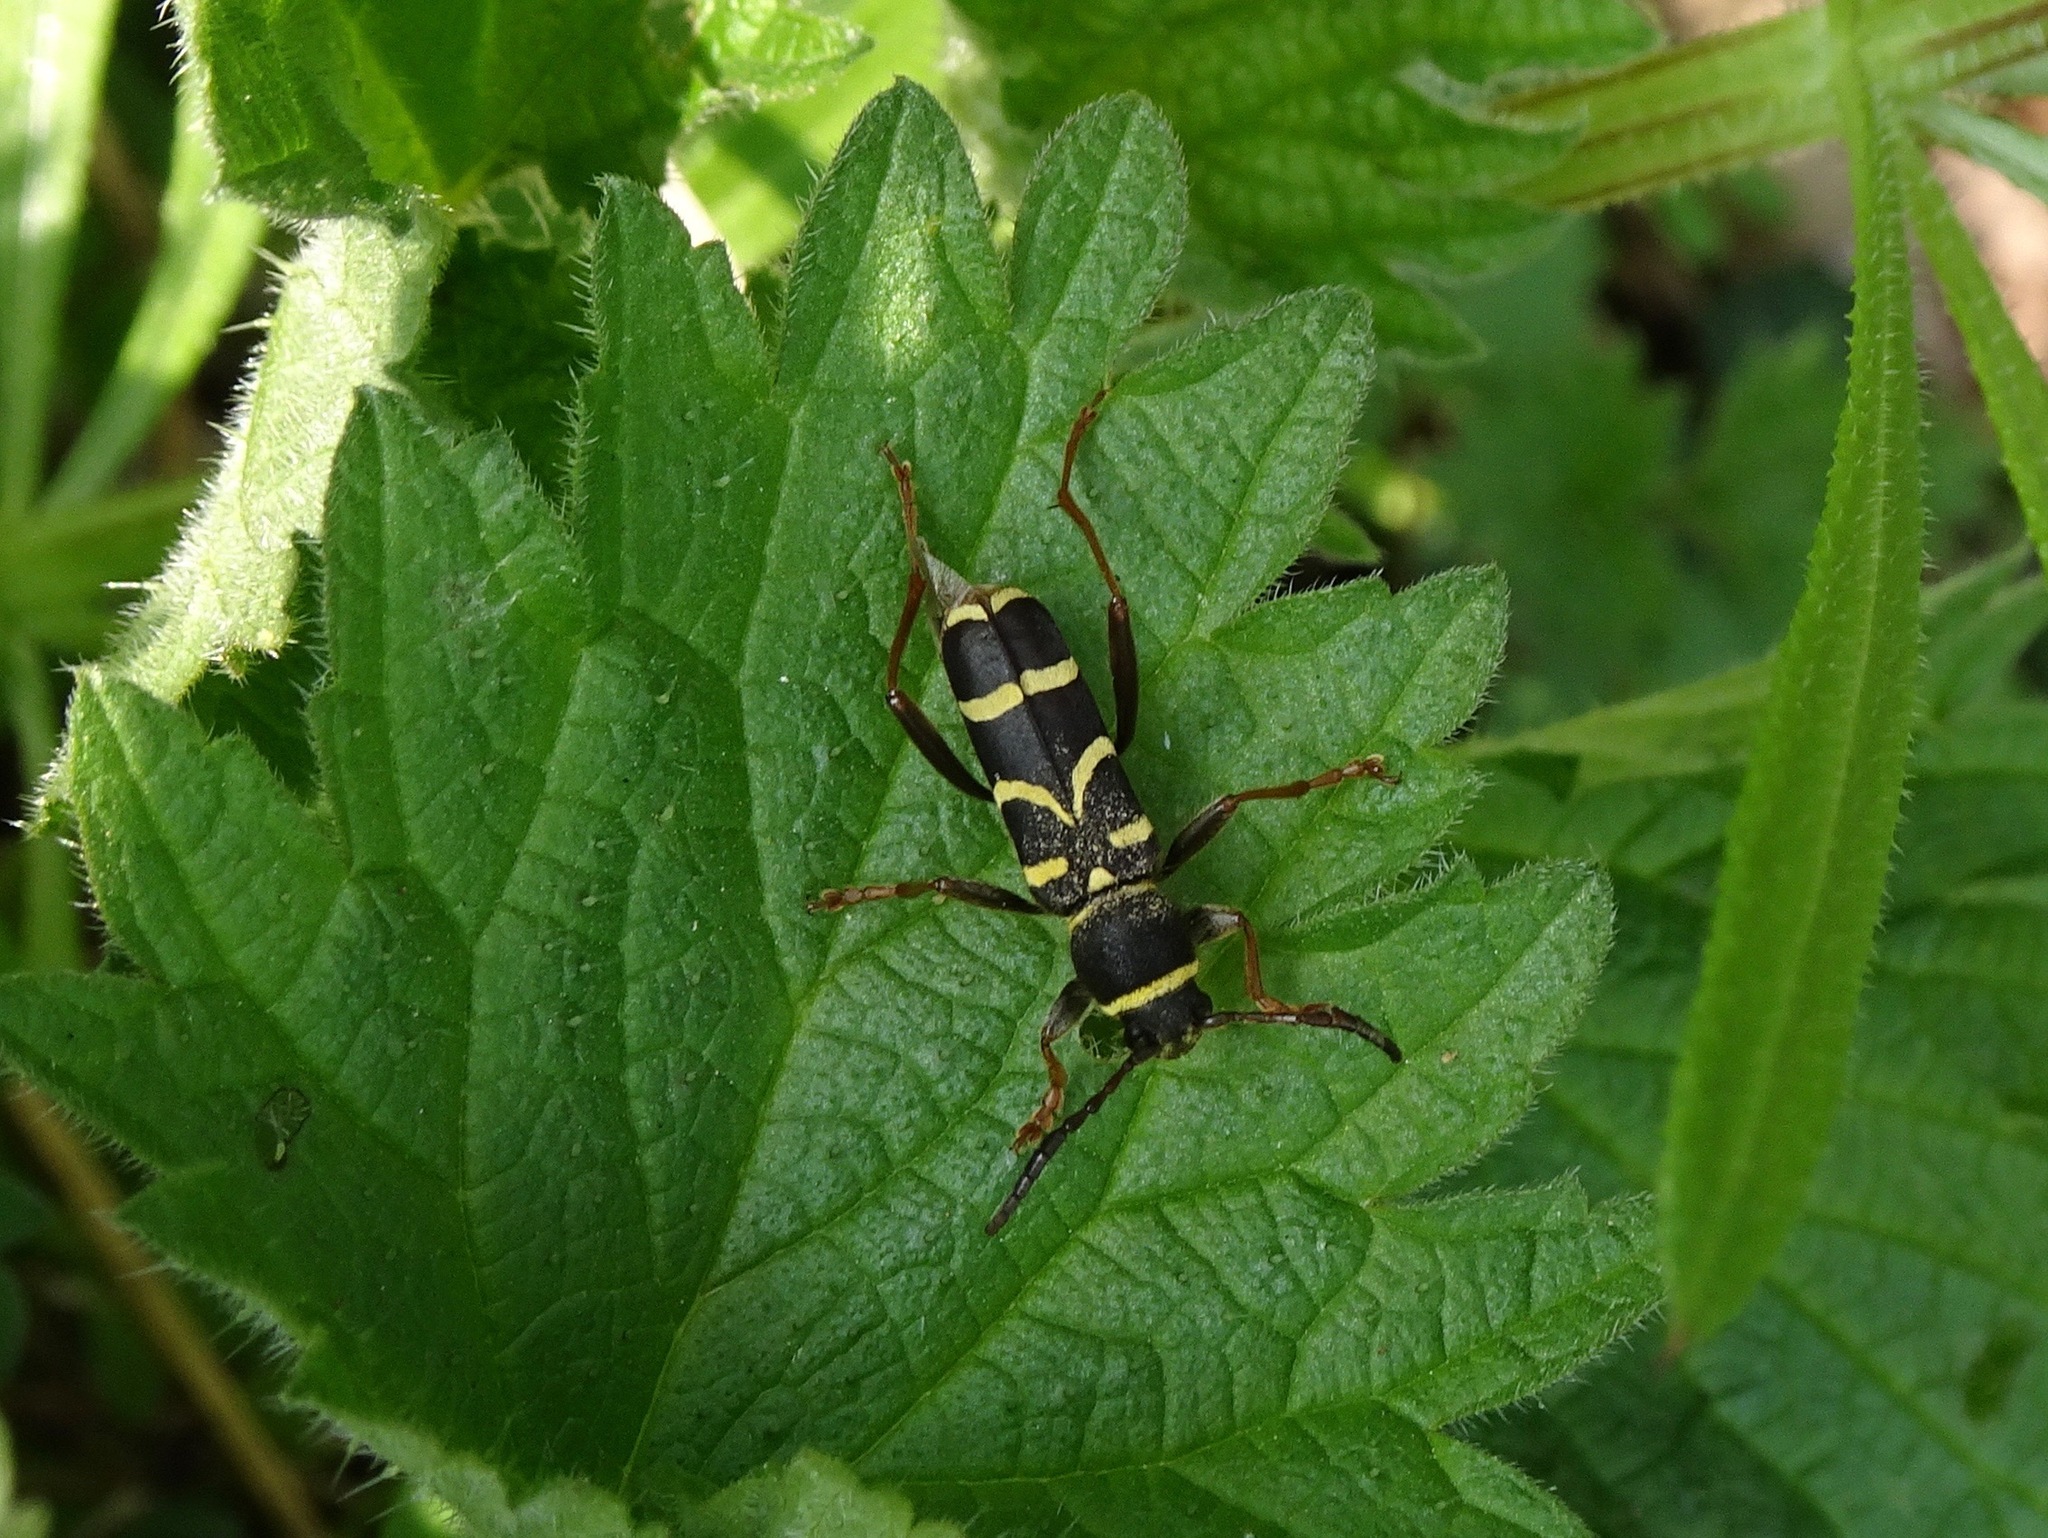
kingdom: Animalia
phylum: Arthropoda
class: Insecta
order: Coleoptera
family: Cerambycidae
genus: Clytus
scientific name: Clytus arietis
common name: Wasp beetle
